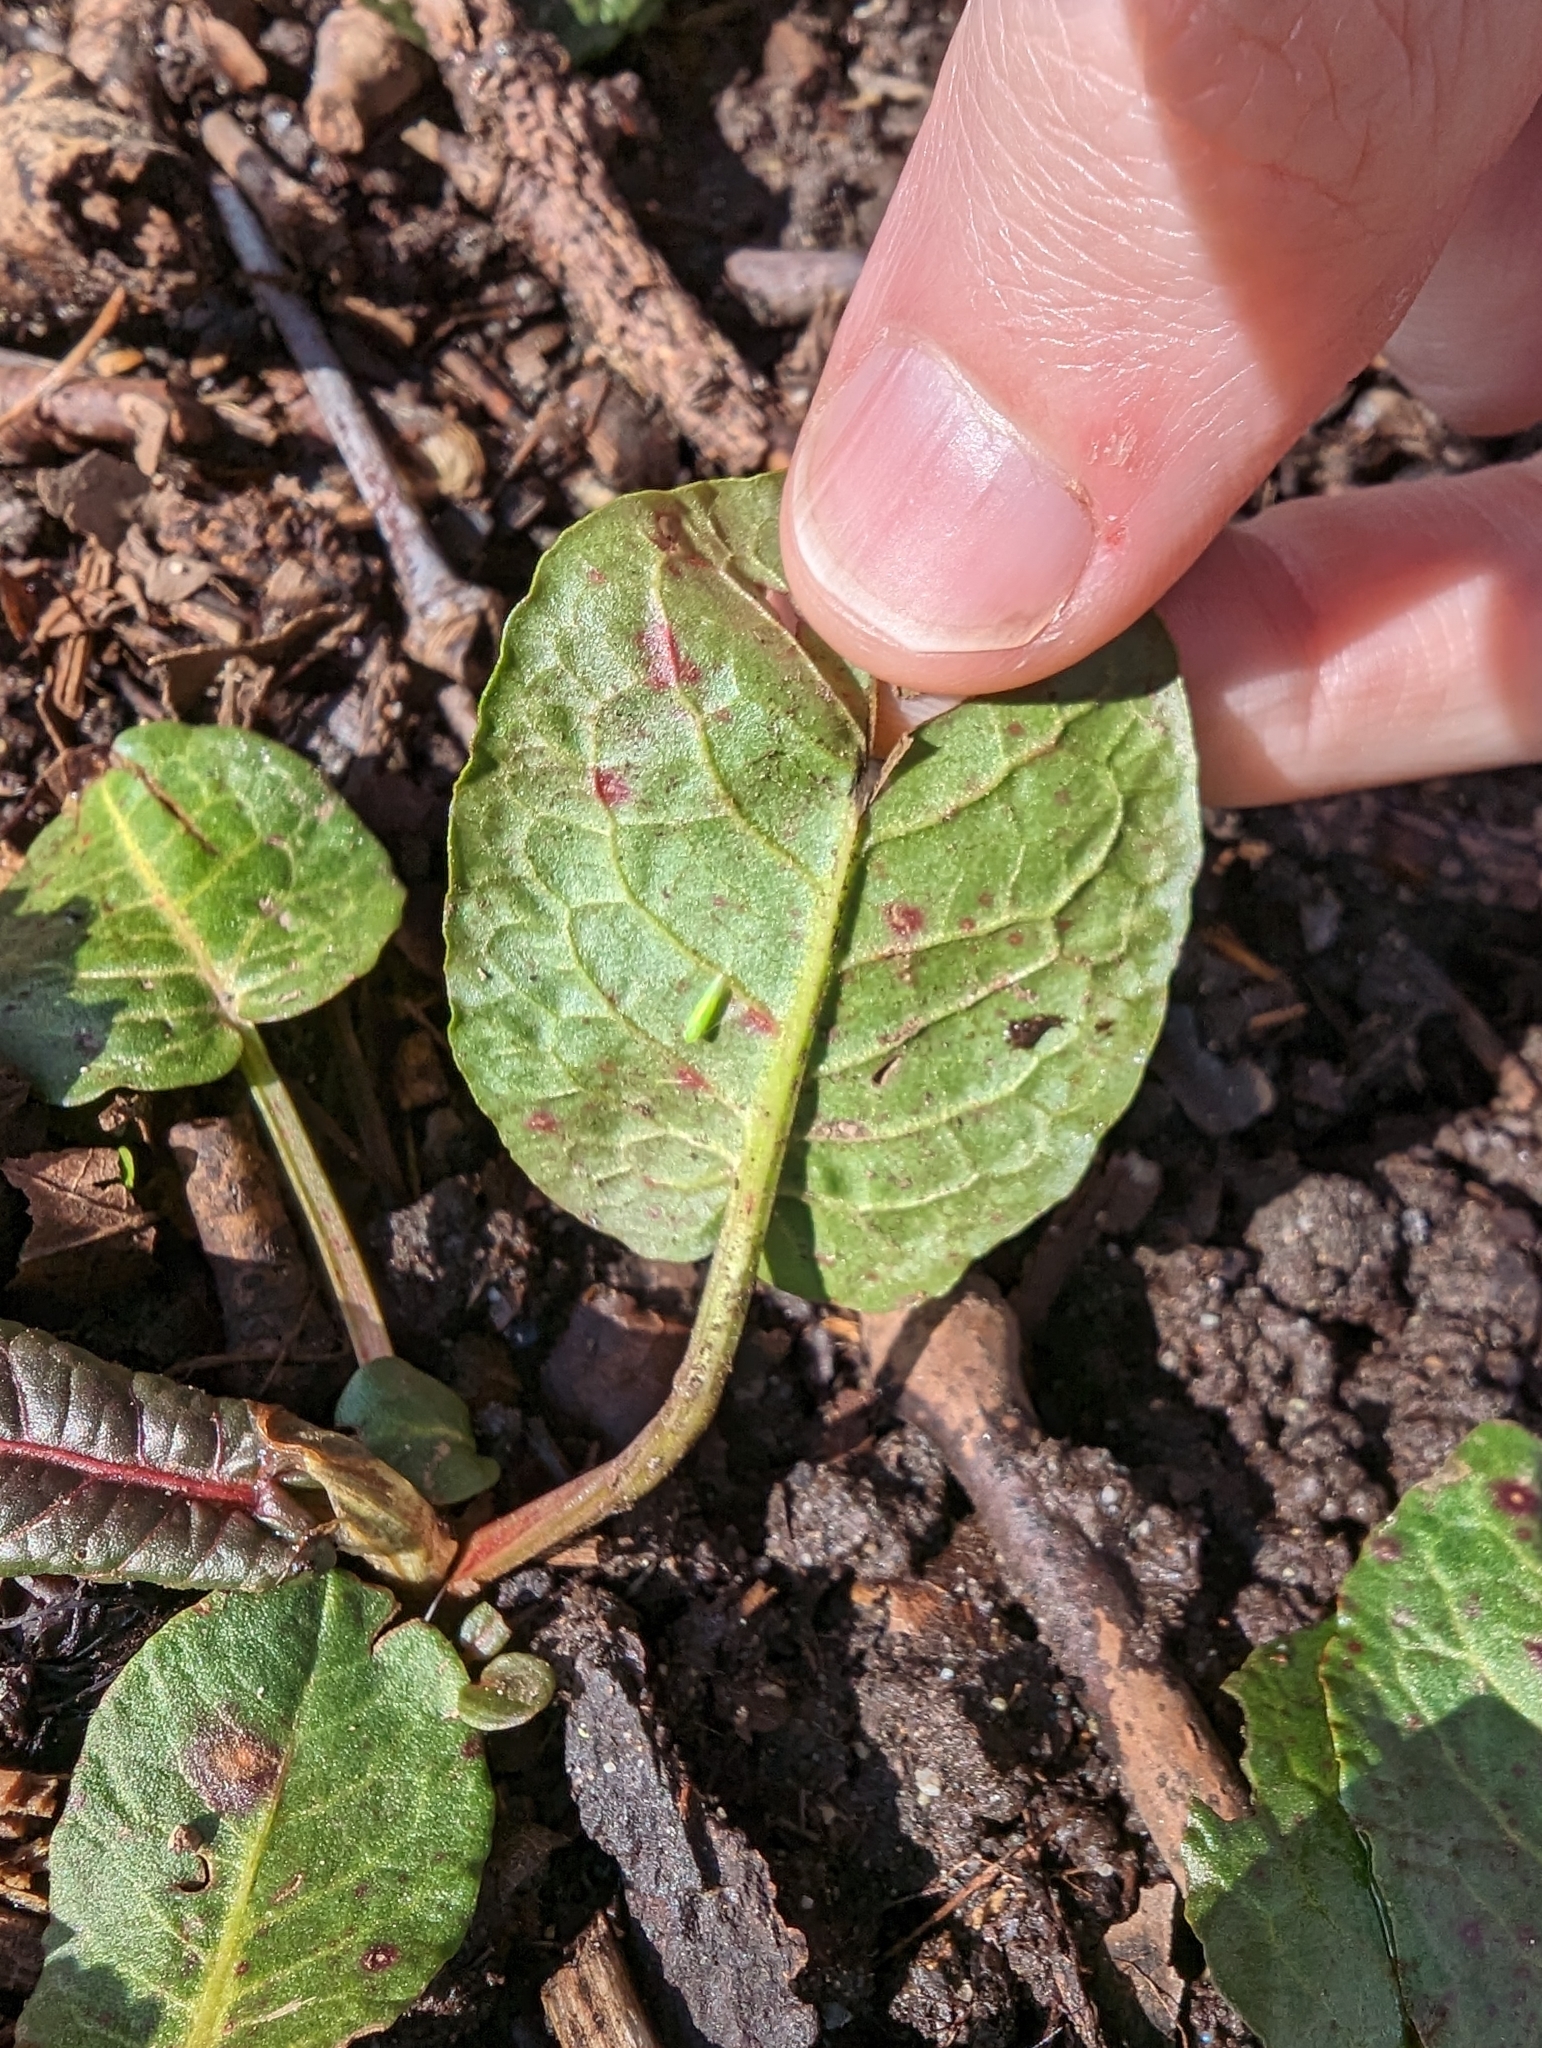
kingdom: Fungi
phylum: Ascomycota
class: Dothideomycetes
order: Mycosphaerellales
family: Mycosphaerellaceae
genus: Ramularia
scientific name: Ramularia rubella
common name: Red dock spot
